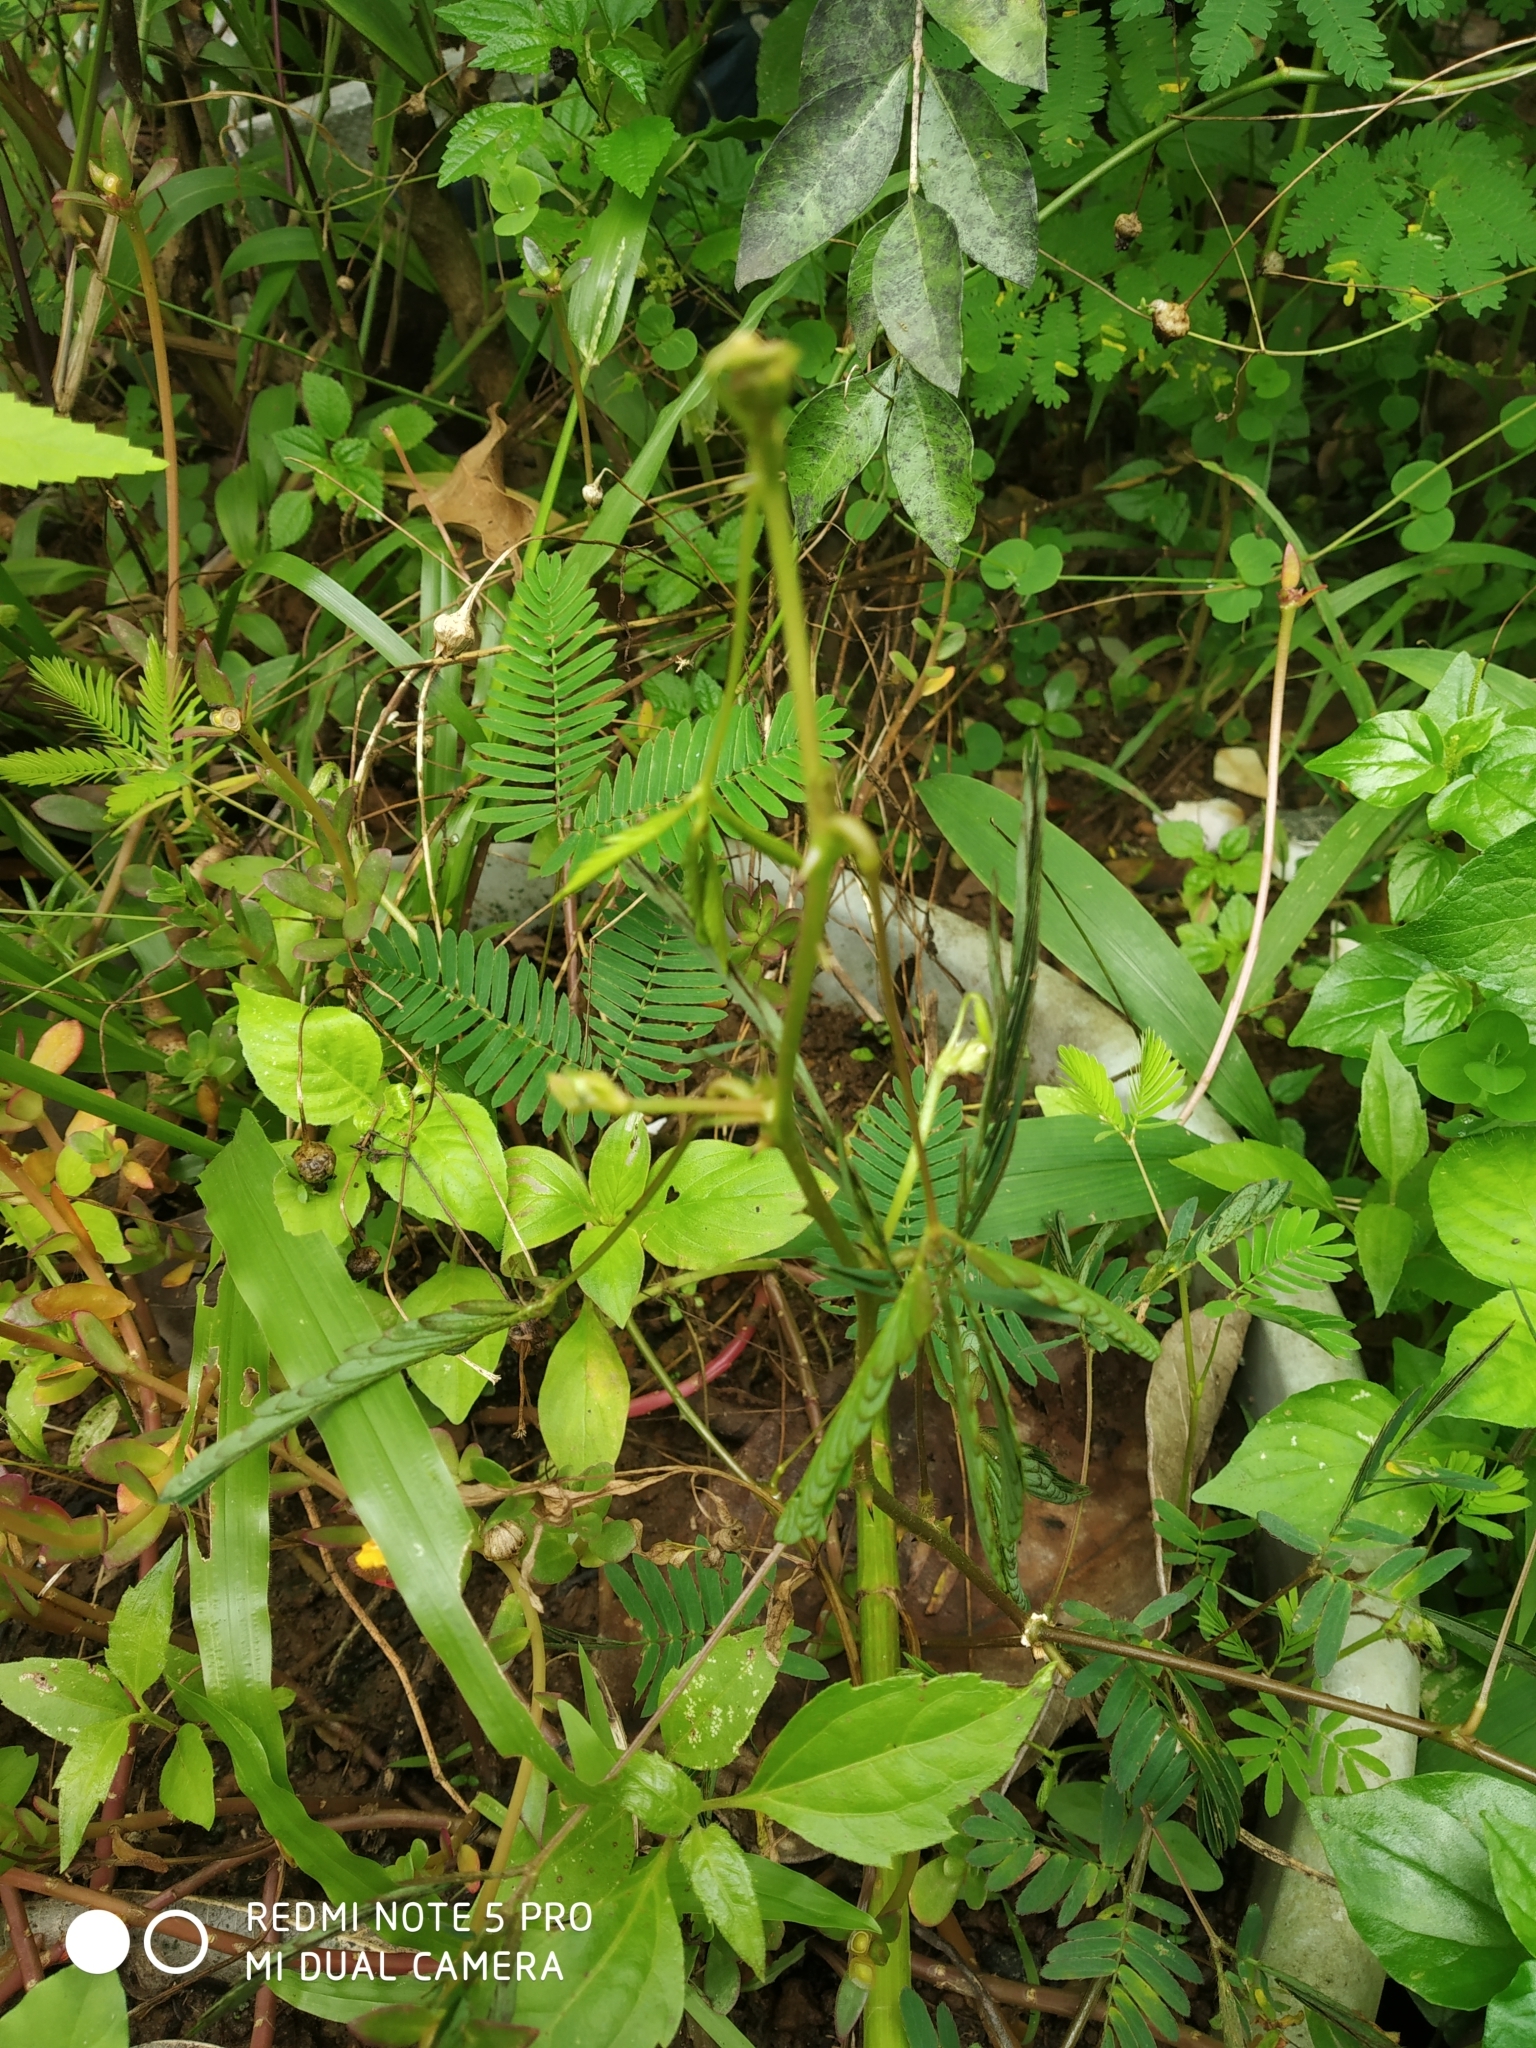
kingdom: Plantae
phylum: Tracheophyta
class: Magnoliopsida
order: Fabales
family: Fabaceae
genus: Mimosa
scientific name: Mimosa pudica
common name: Sensitive plant
